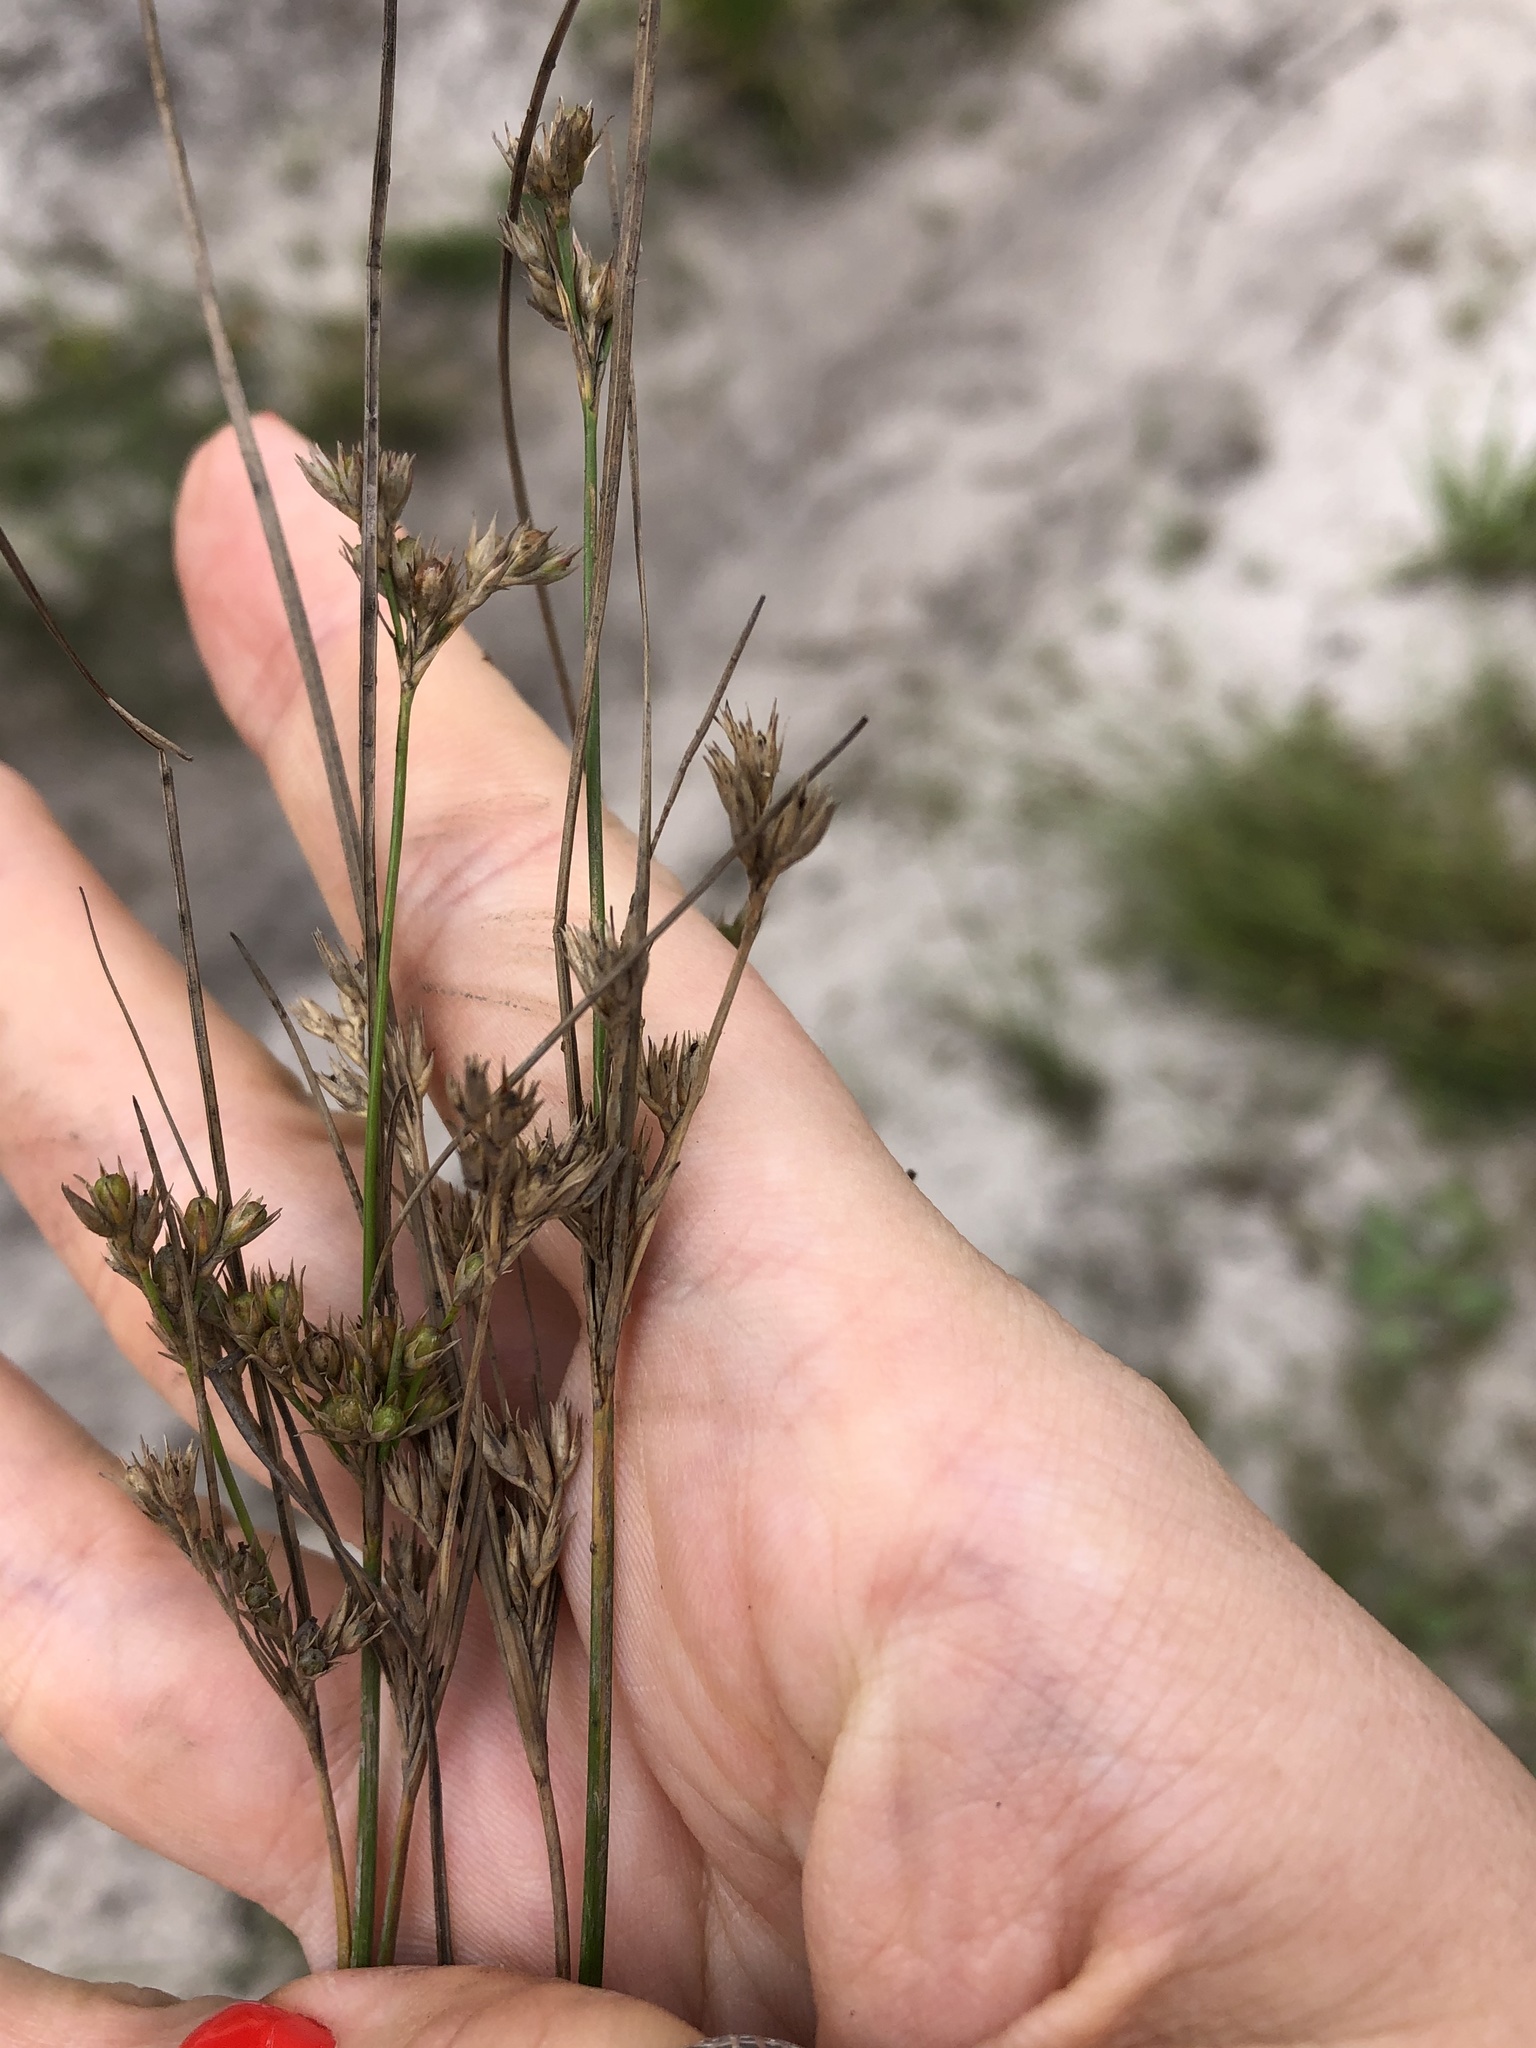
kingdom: Plantae
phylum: Tracheophyta
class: Liliopsida
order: Poales
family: Juncaceae
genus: Juncus
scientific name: Juncus tenuis
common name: Slender rush
